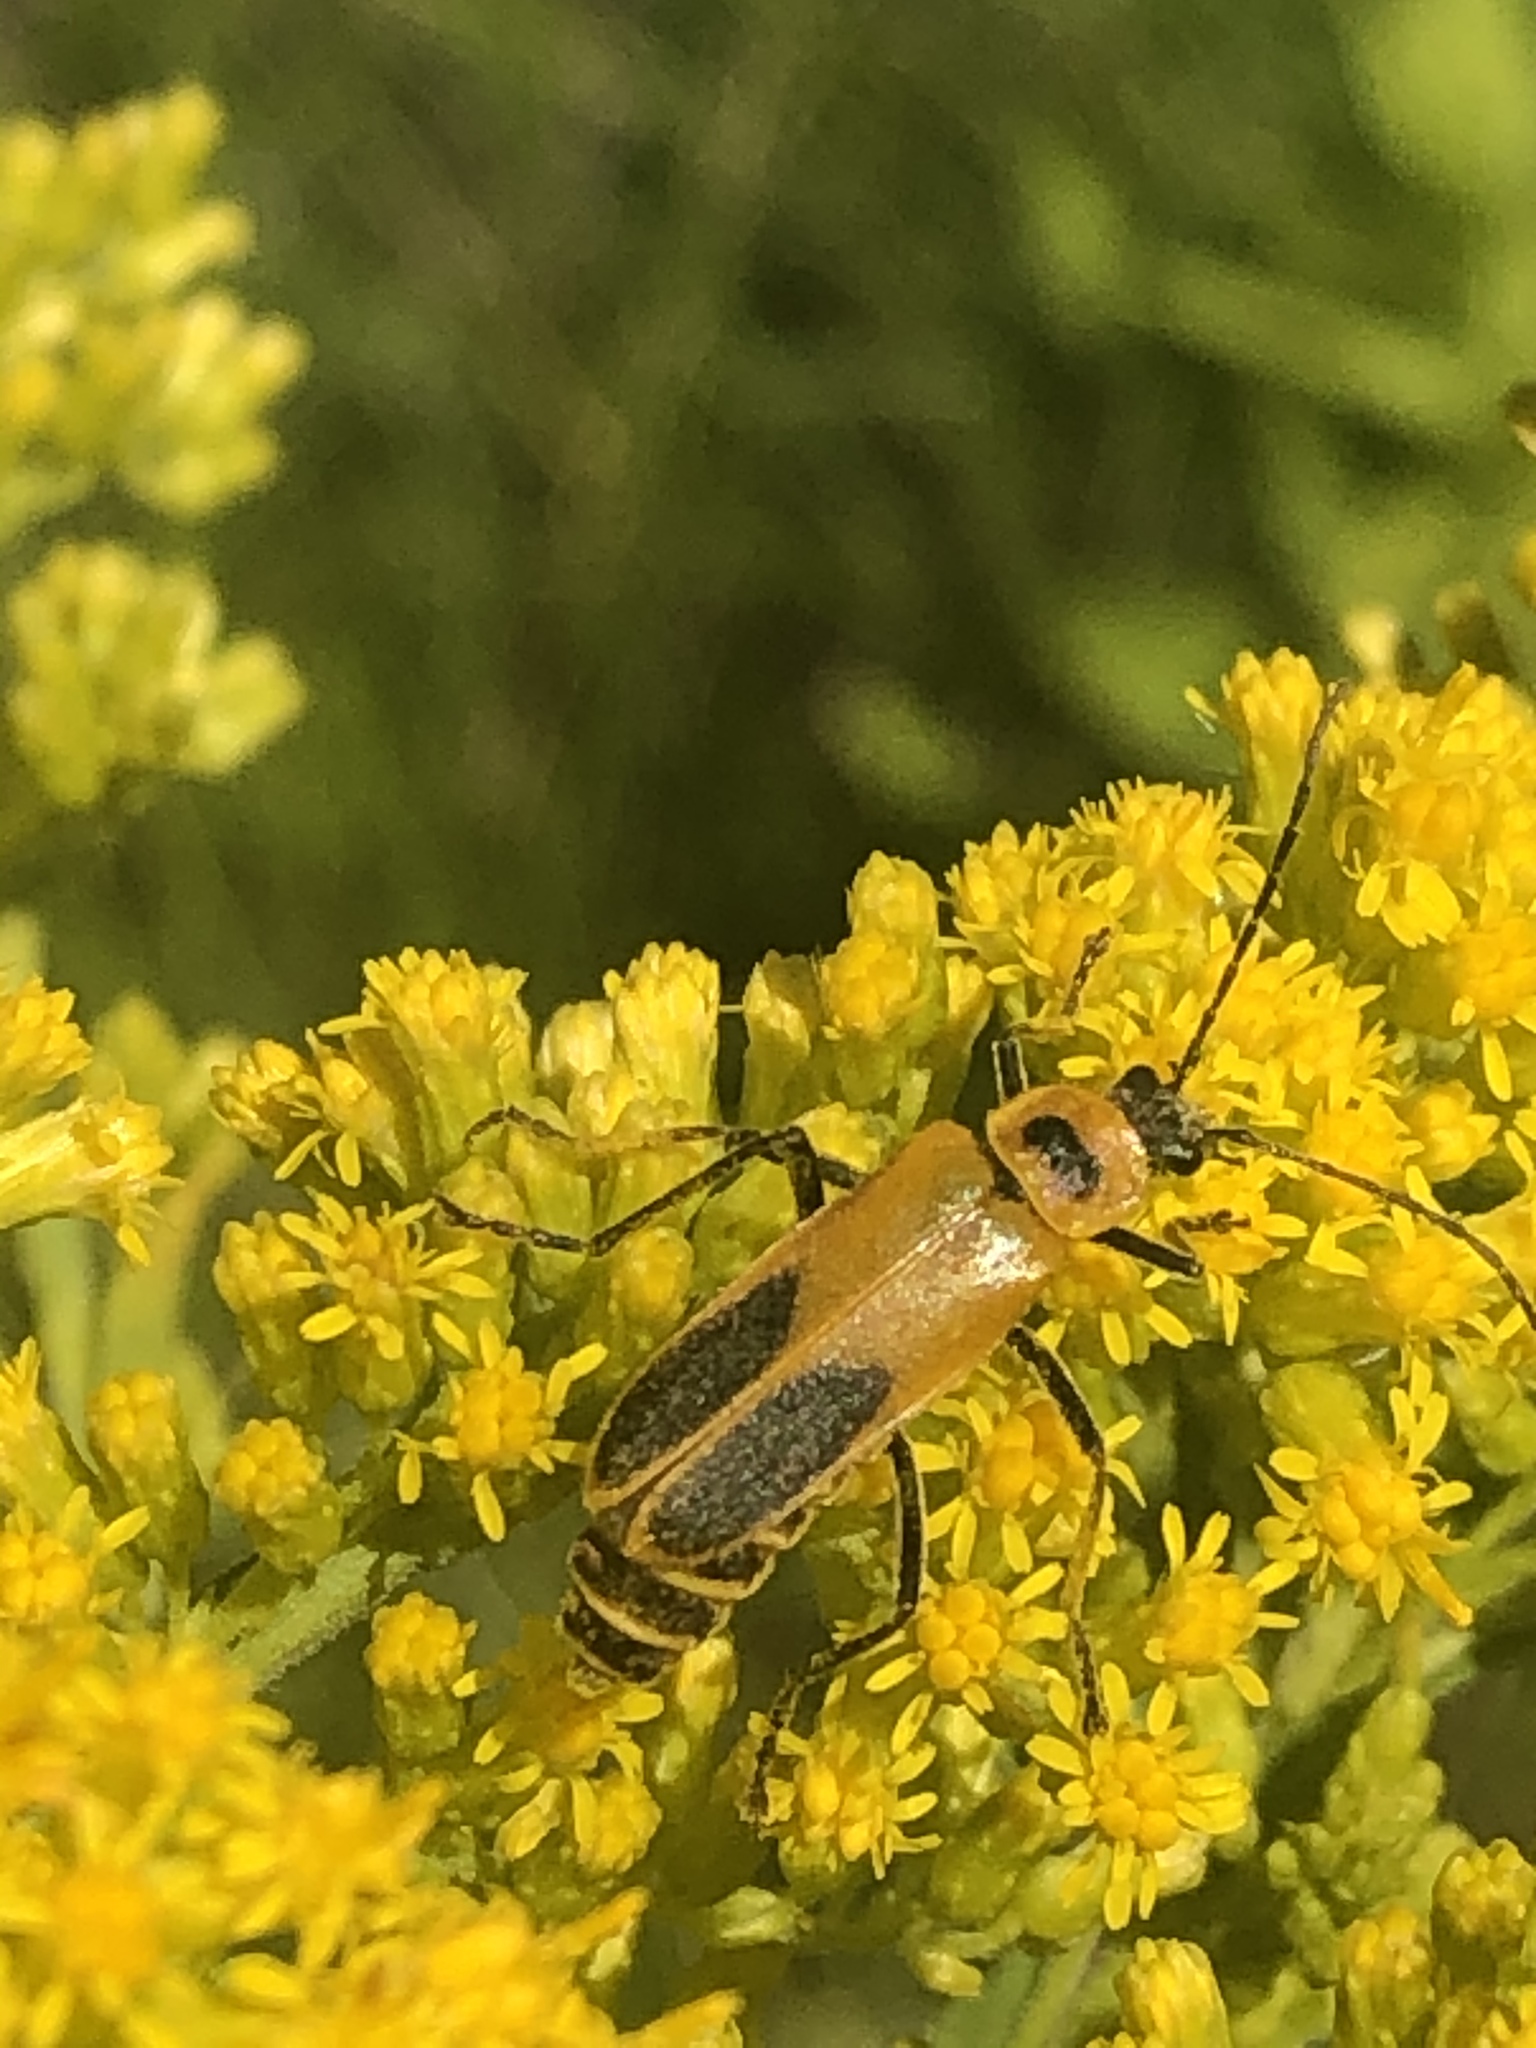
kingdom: Animalia
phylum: Arthropoda
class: Insecta
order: Coleoptera
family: Cantharidae
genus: Chauliognathus
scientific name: Chauliognathus pensylvanicus
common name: Goldenrod soldier beetle
